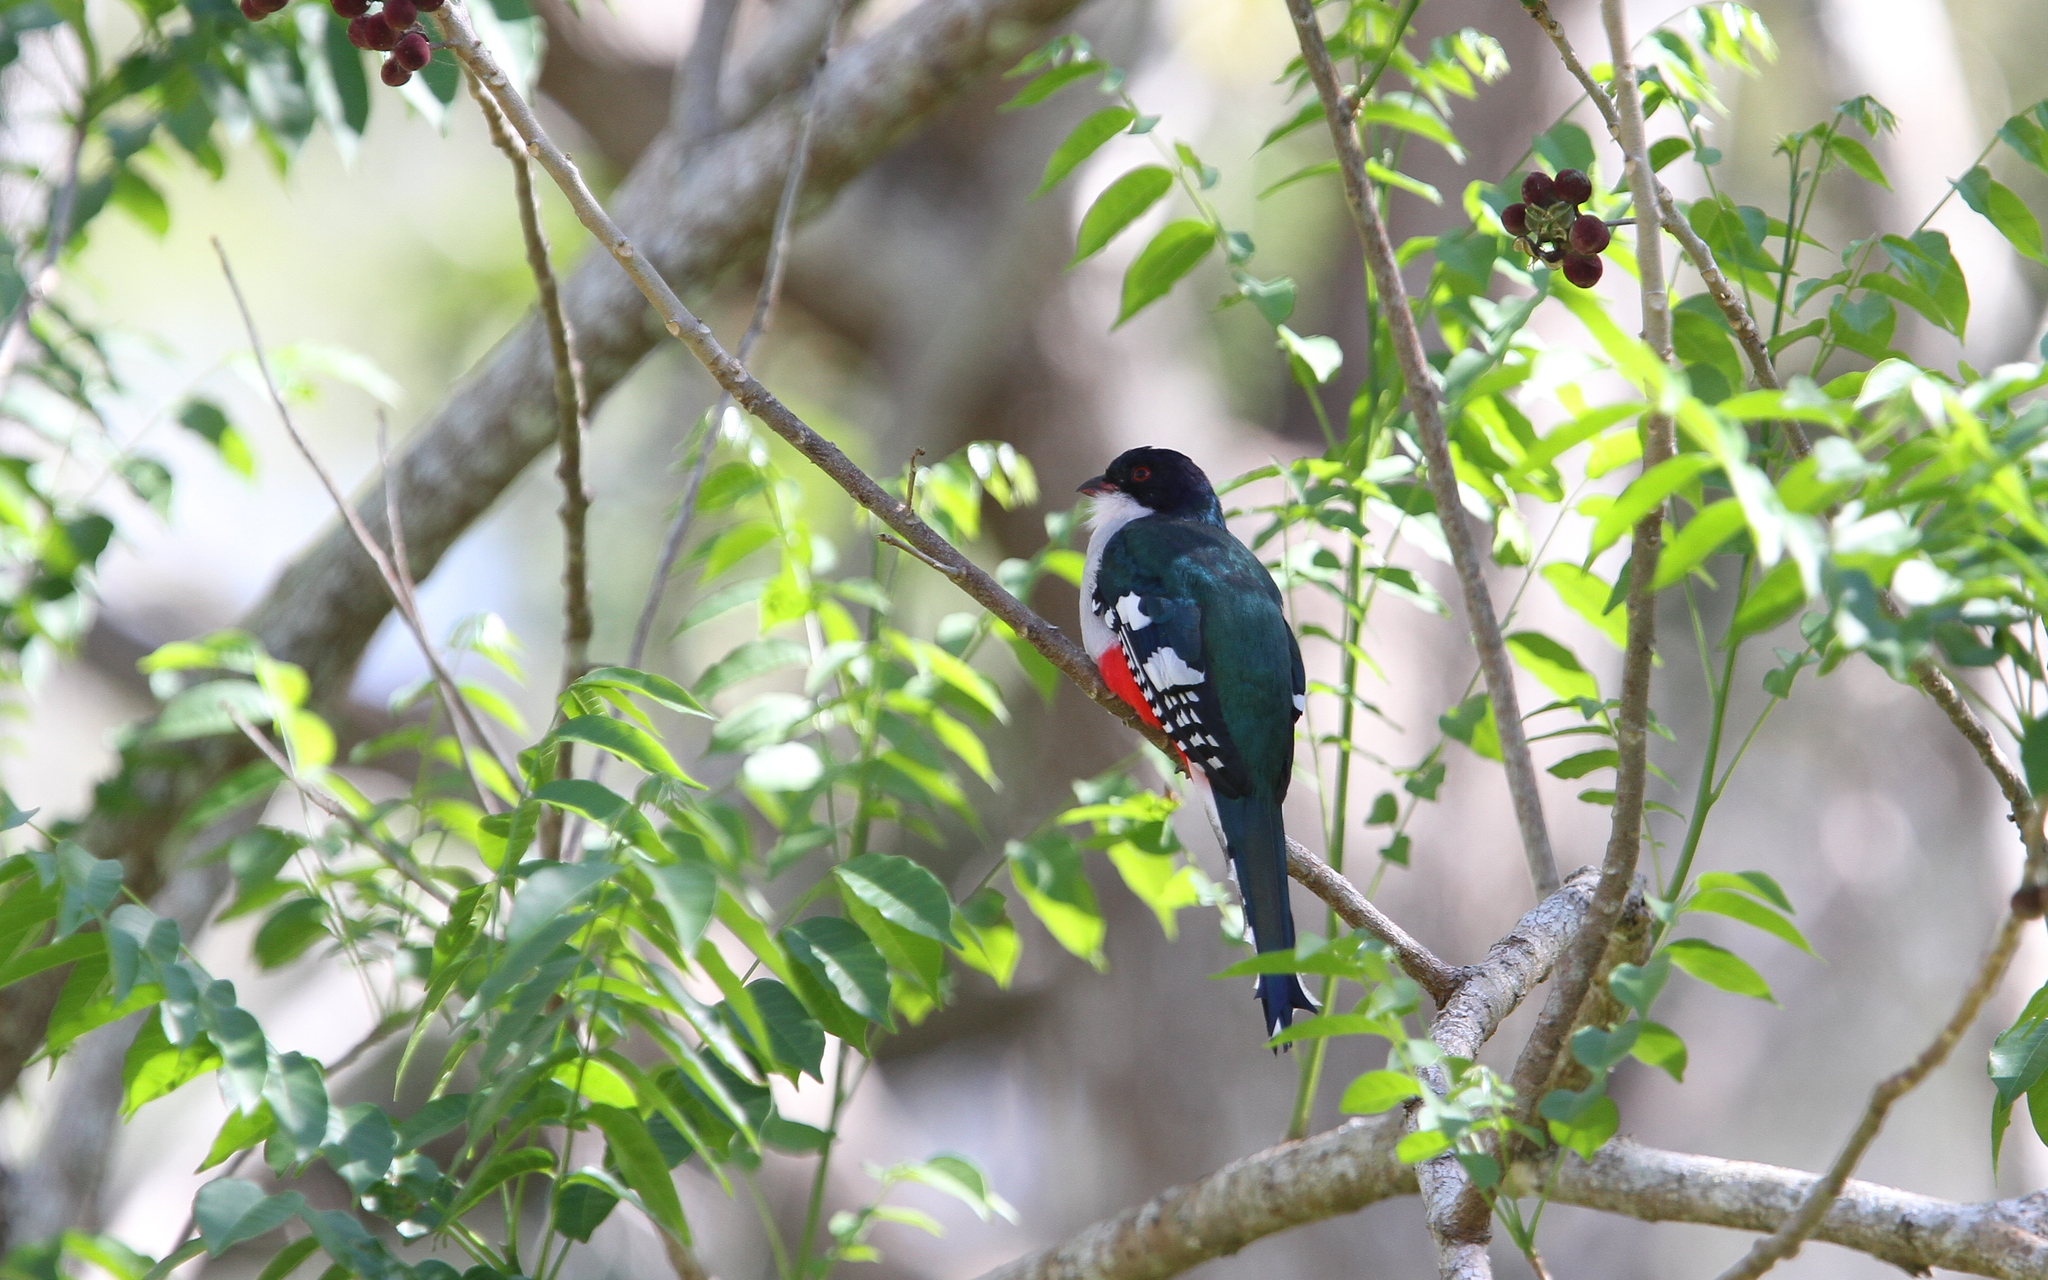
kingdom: Animalia
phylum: Chordata
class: Aves
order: Trogoniformes
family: Trogonidae
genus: Priotelus
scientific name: Priotelus temnurus
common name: Cuban trogon
